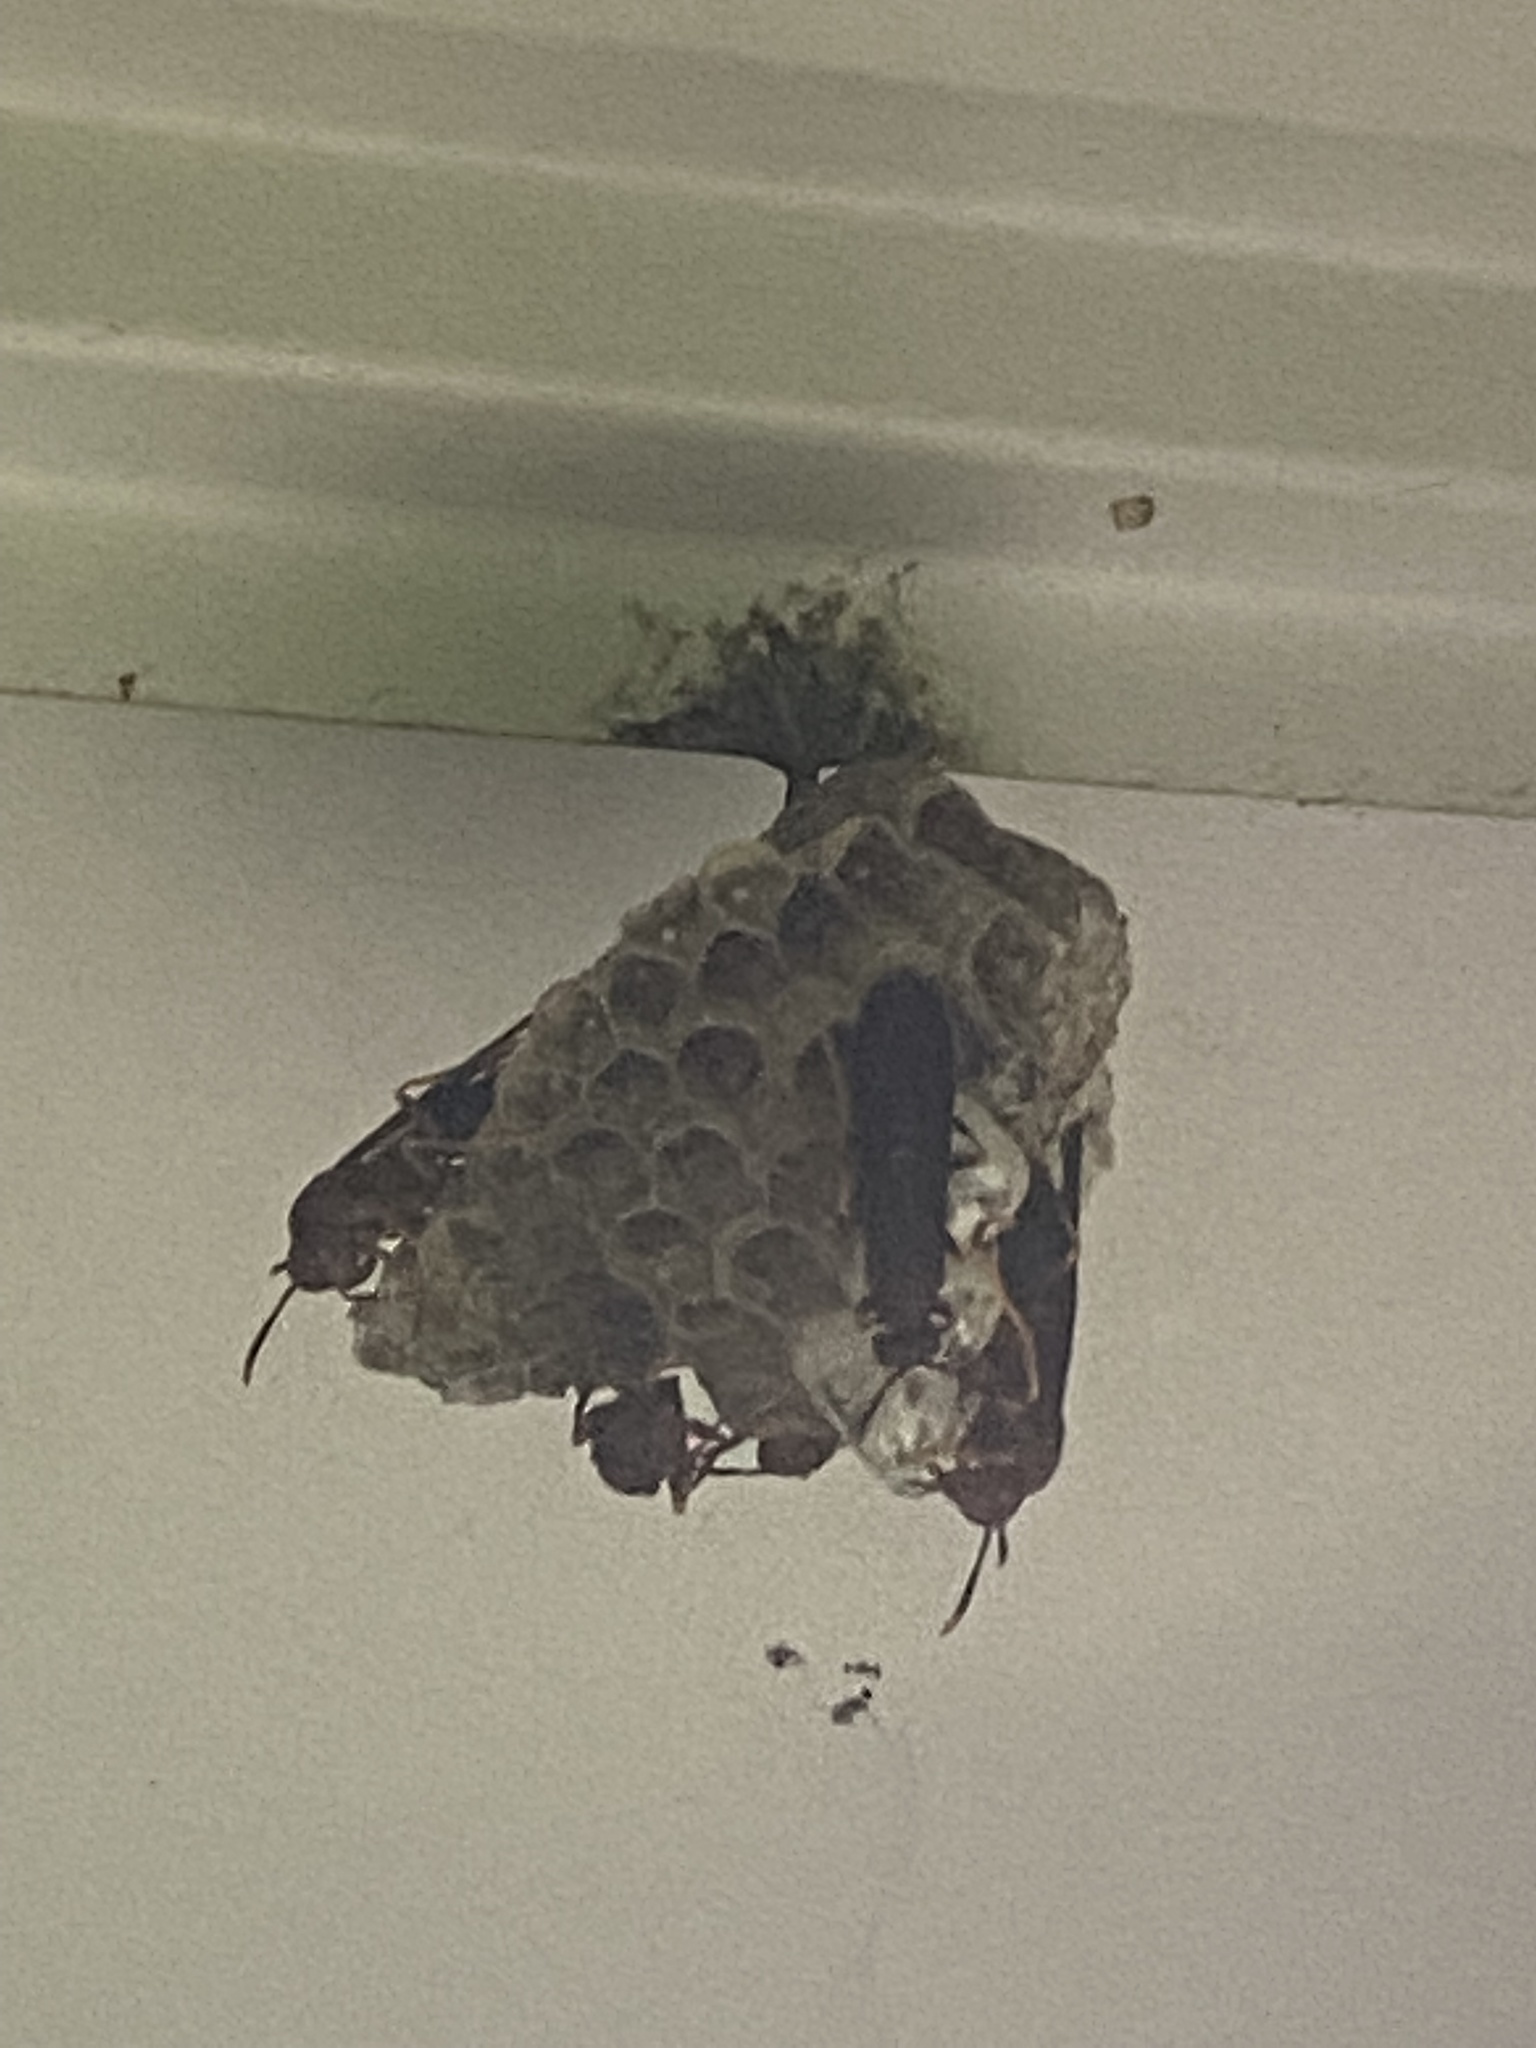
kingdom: Animalia
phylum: Arthropoda
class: Insecta
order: Hymenoptera
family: Eumenidae
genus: Polistes
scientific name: Polistes annularis
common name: Ringed paper wasp
